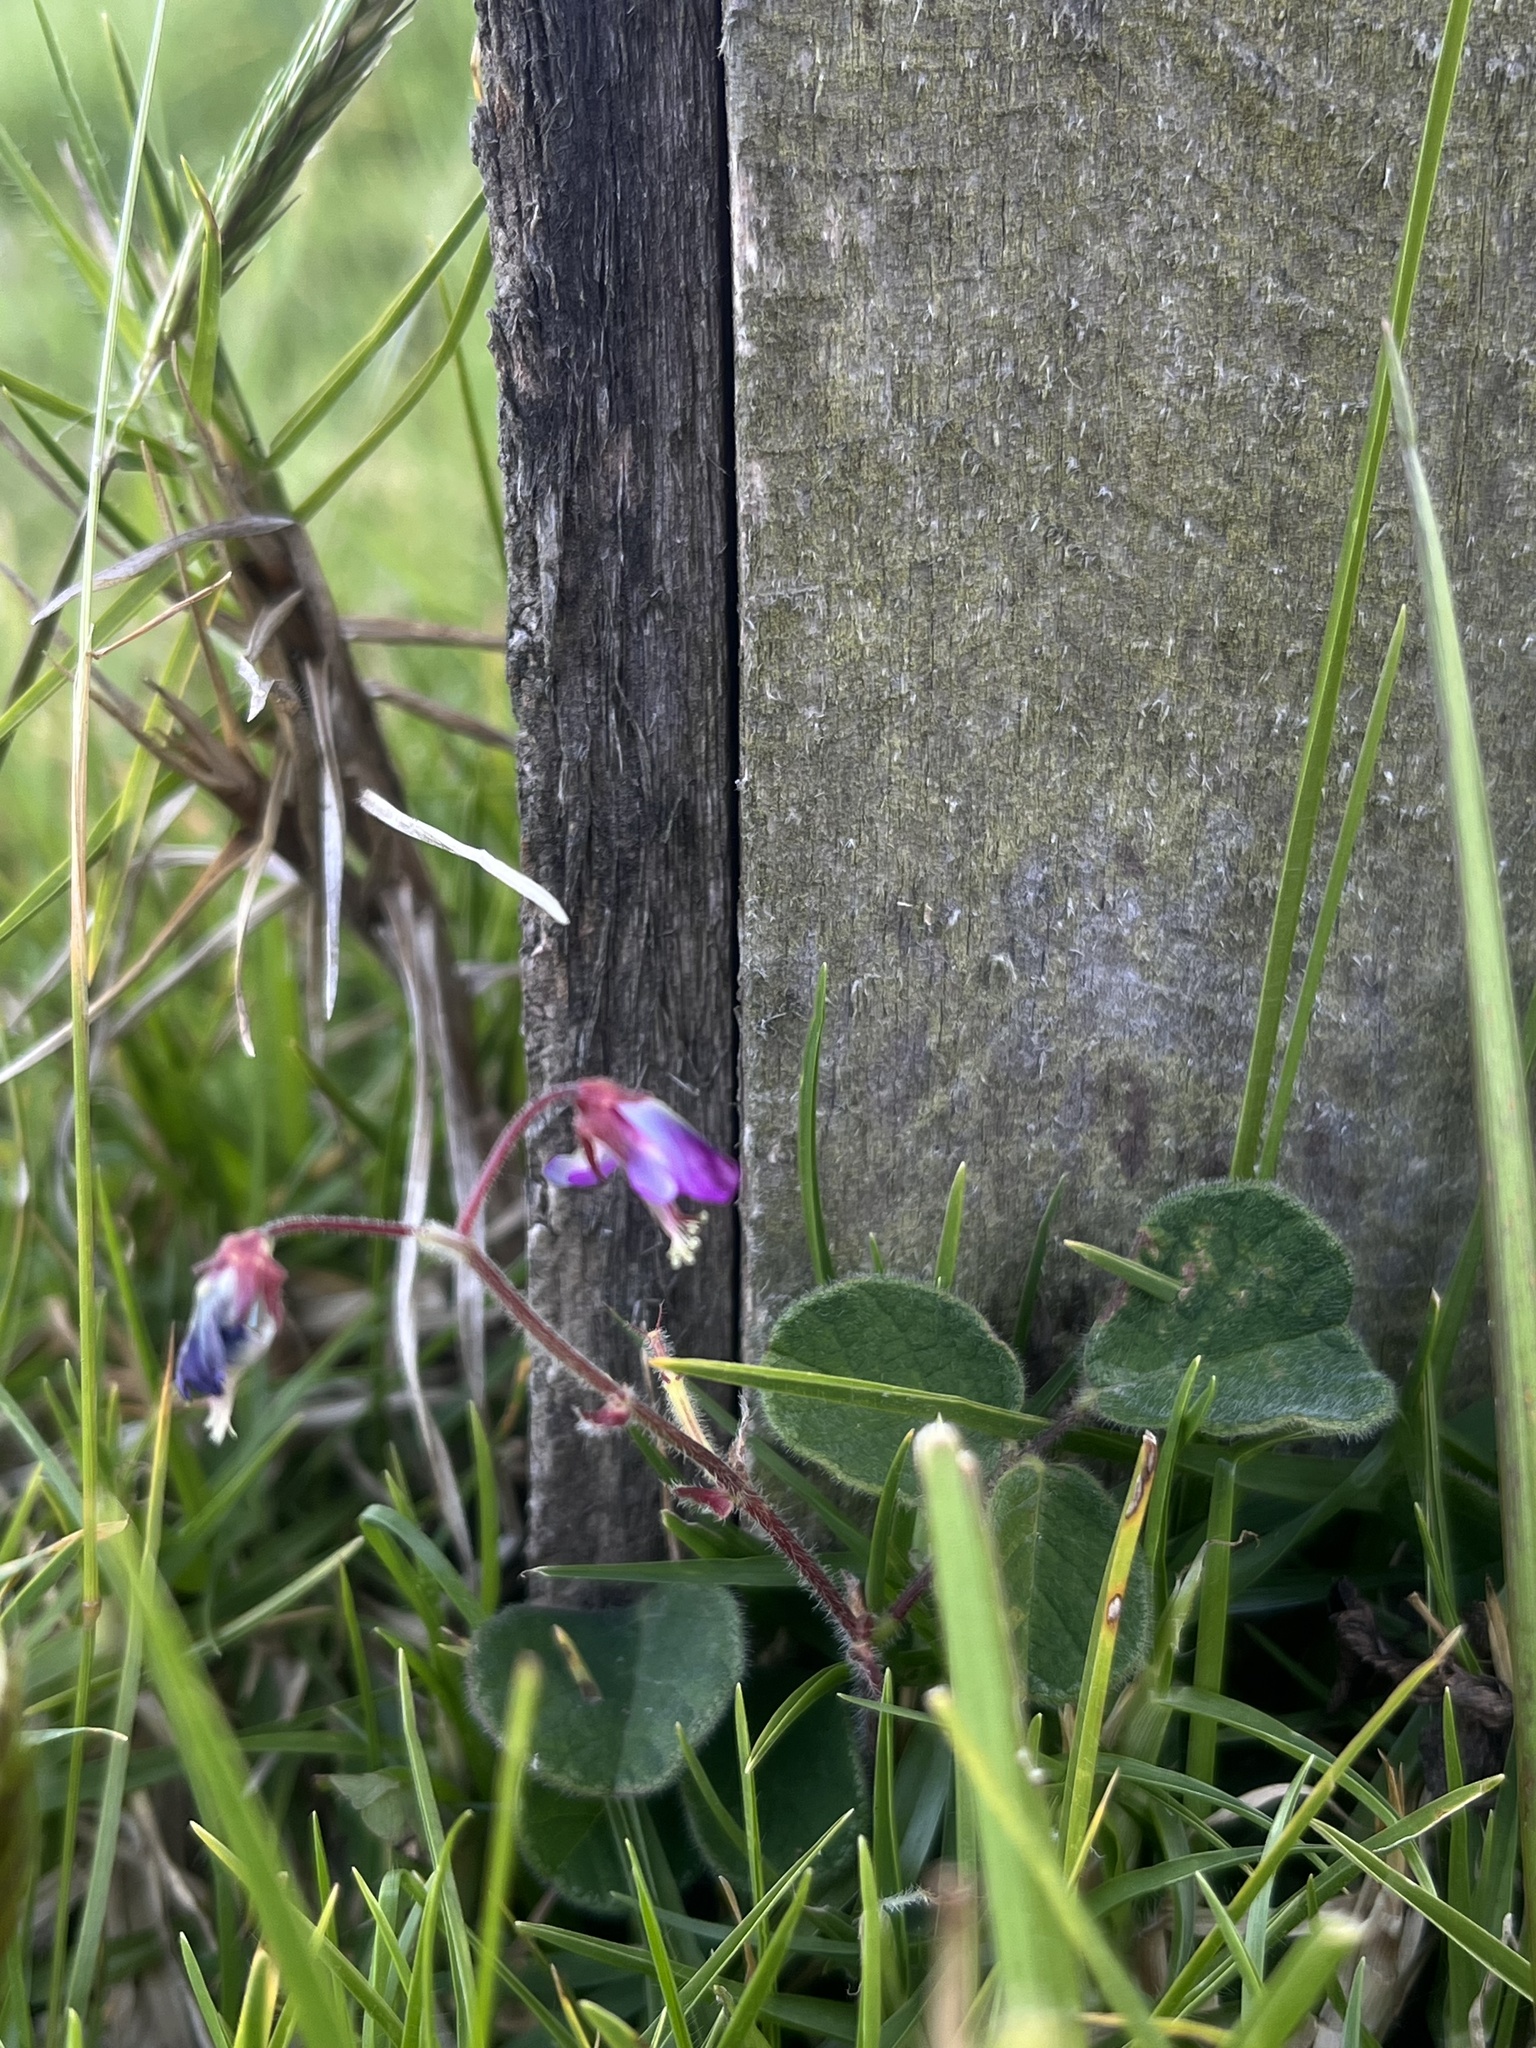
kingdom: Plantae
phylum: Tracheophyta
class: Magnoliopsida
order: Fabales
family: Fabaceae
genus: Desmodium
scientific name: Desmodium molliculum
